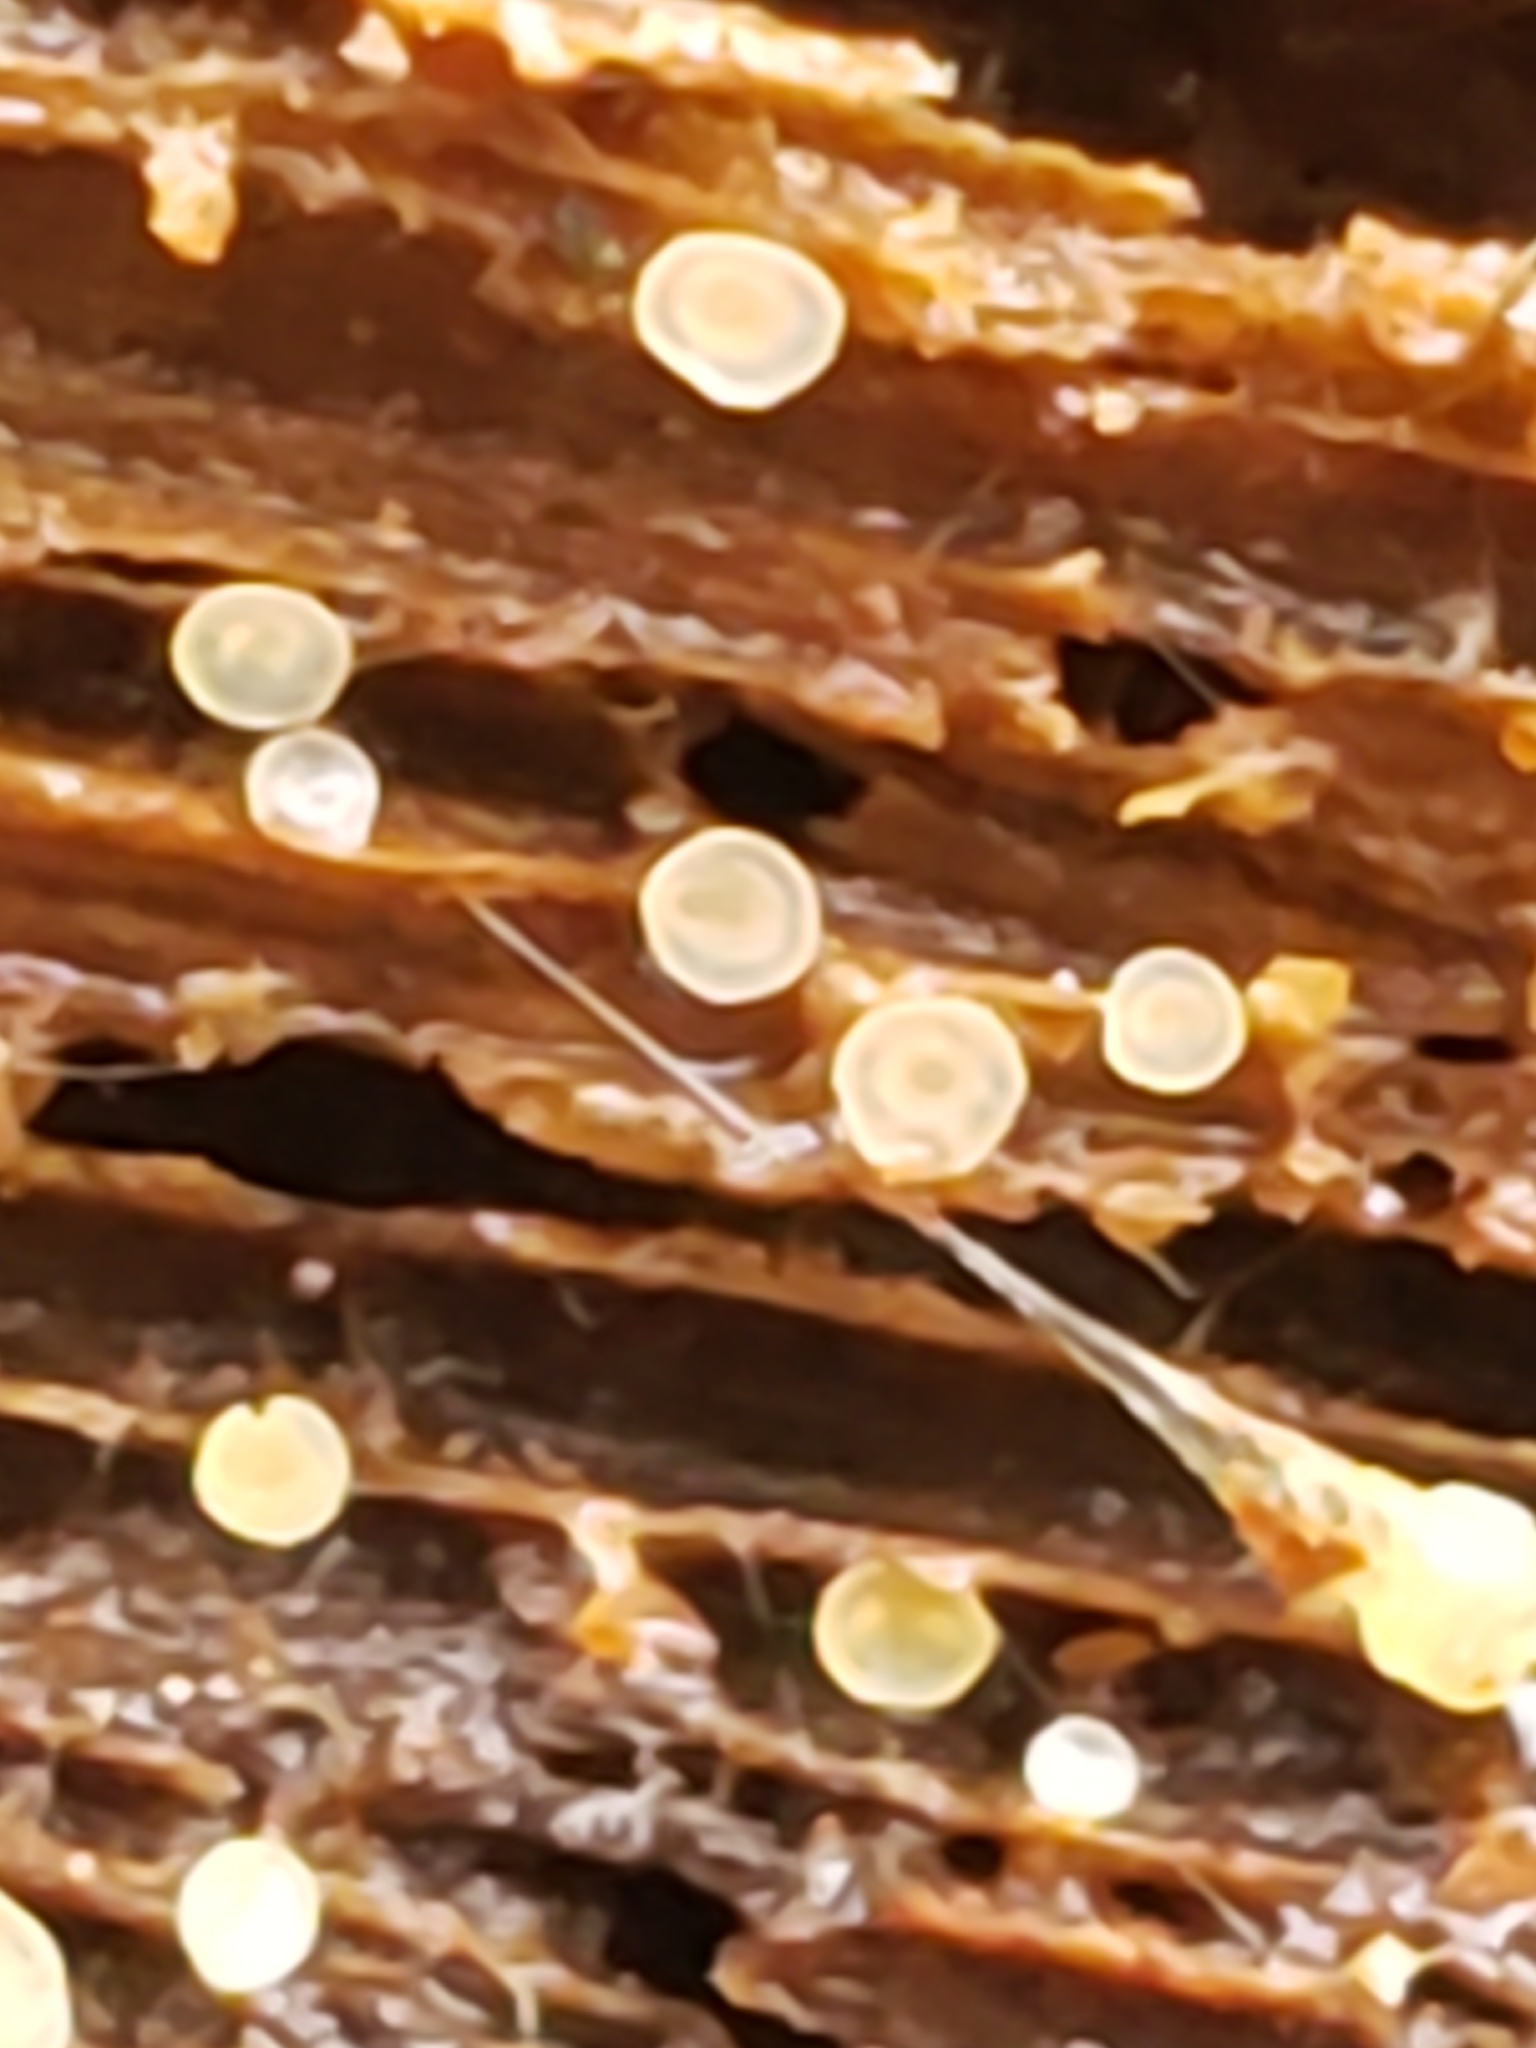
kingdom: Fungi
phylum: Ascomycota
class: Orbiliomycetes
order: Orbiliales
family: Orbiliaceae
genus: Orbilia
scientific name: Orbilia
